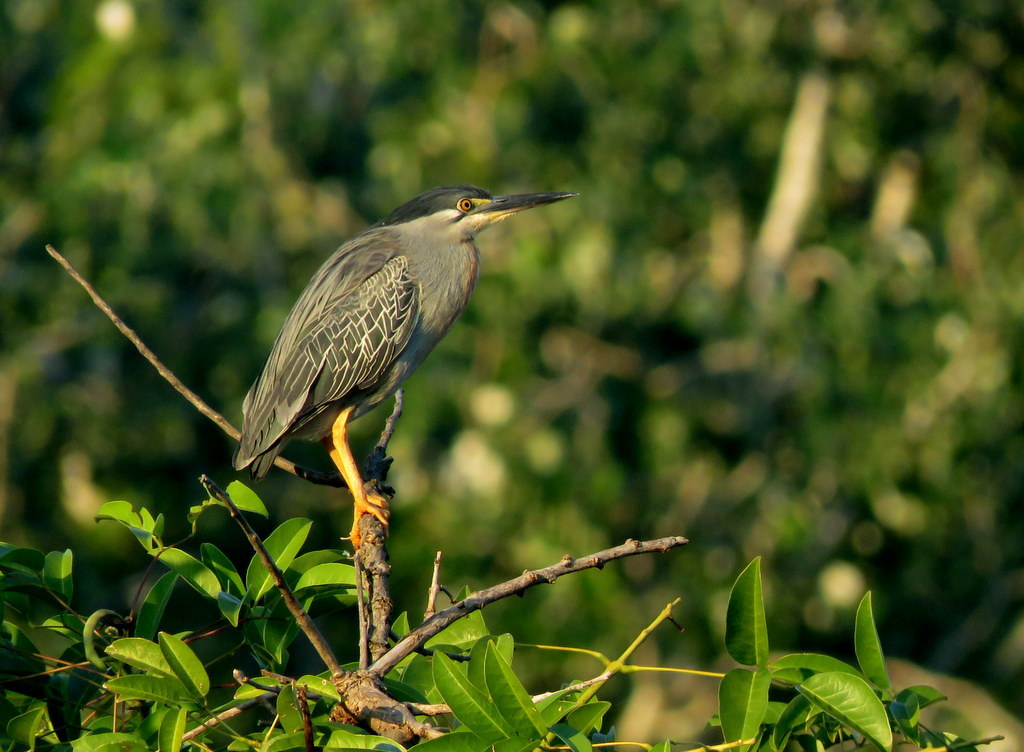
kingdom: Animalia
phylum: Chordata
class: Aves
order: Pelecaniformes
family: Ardeidae
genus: Butorides
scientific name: Butorides striata
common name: Striated heron
